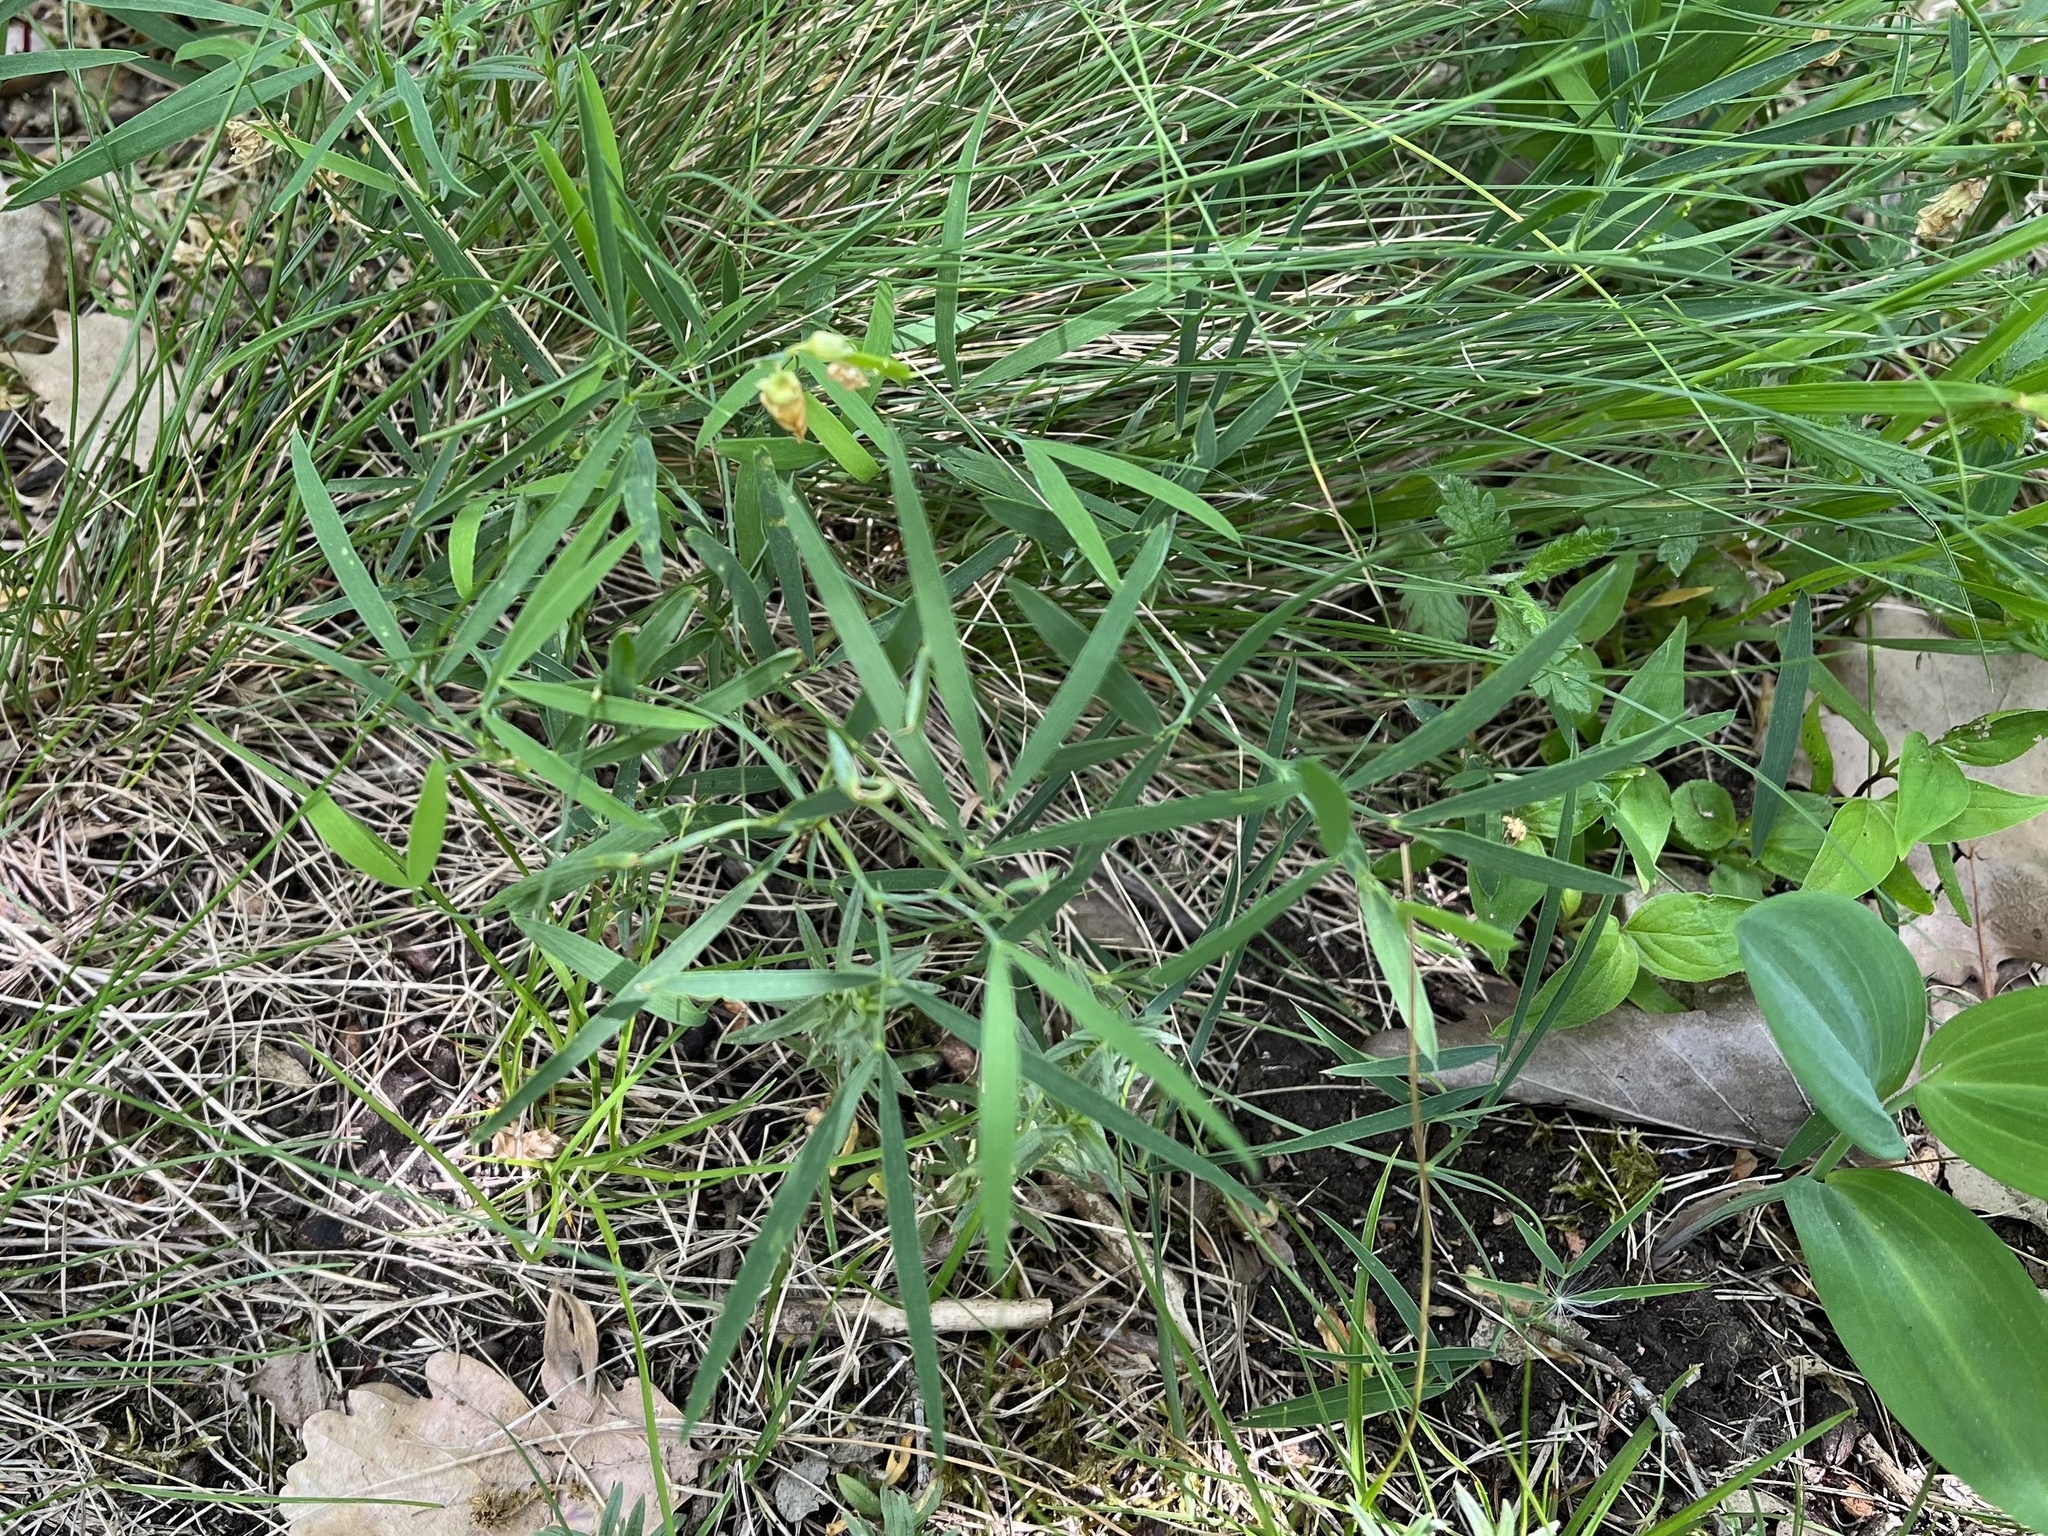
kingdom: Plantae
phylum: Tracheophyta
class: Magnoliopsida
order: Fabales
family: Fabaceae
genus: Lathyrus
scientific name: Lathyrus pannonicus
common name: Pea
